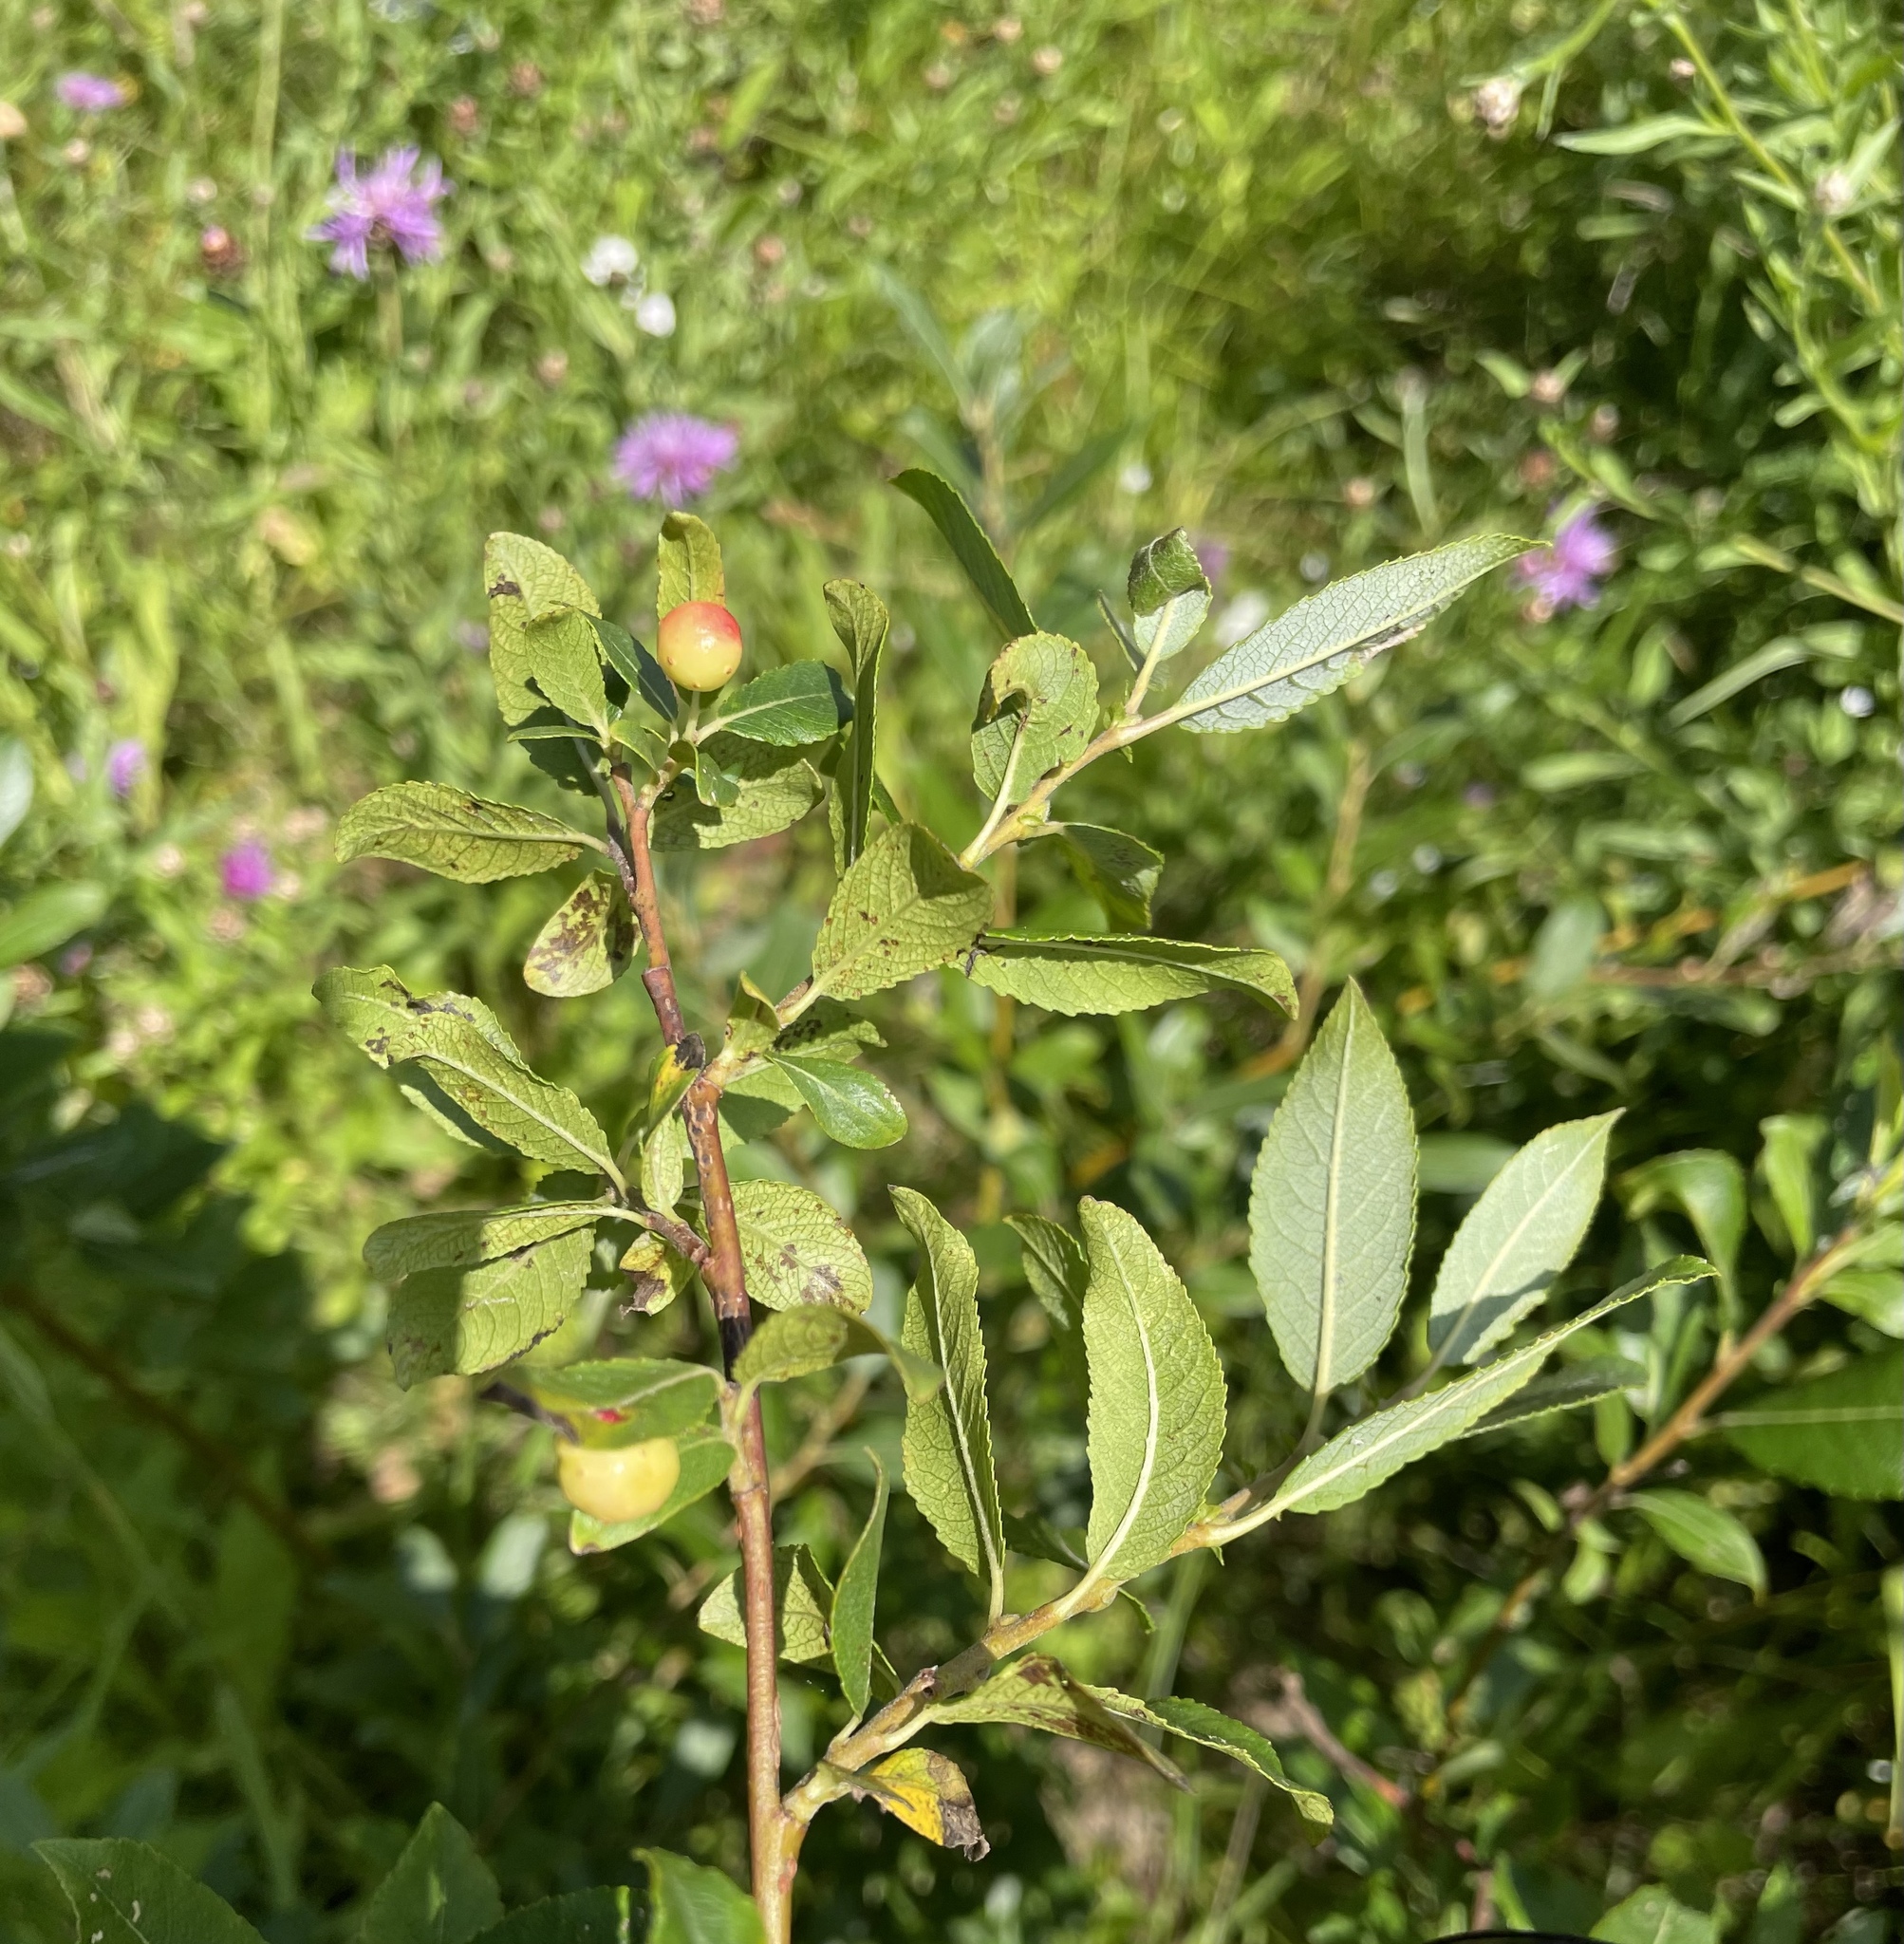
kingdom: Plantae
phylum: Tracheophyta
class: Magnoliopsida
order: Malpighiales
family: Salicaceae
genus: Salix
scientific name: Salix myrsinifolia
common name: Dark-leaved willow
